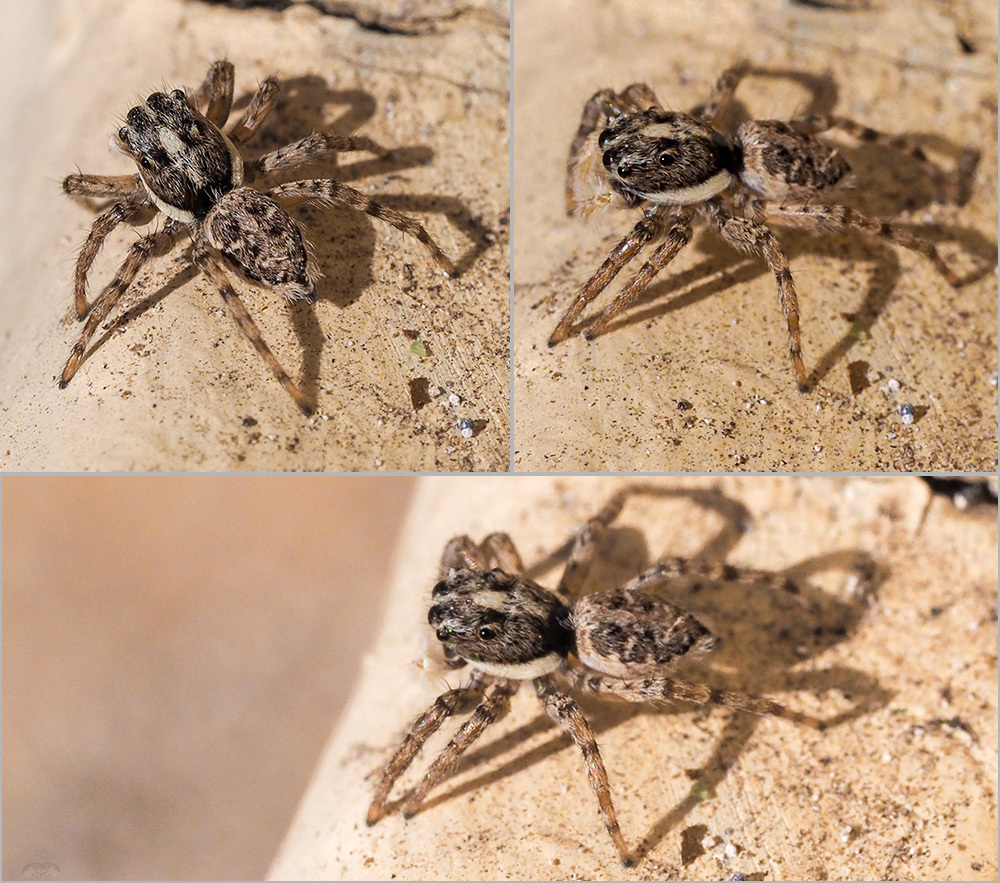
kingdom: Animalia
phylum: Arthropoda
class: Arachnida
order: Araneae
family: Salticidae
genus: Menemerus
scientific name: Menemerus semilimbatus
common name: Jumping spider
